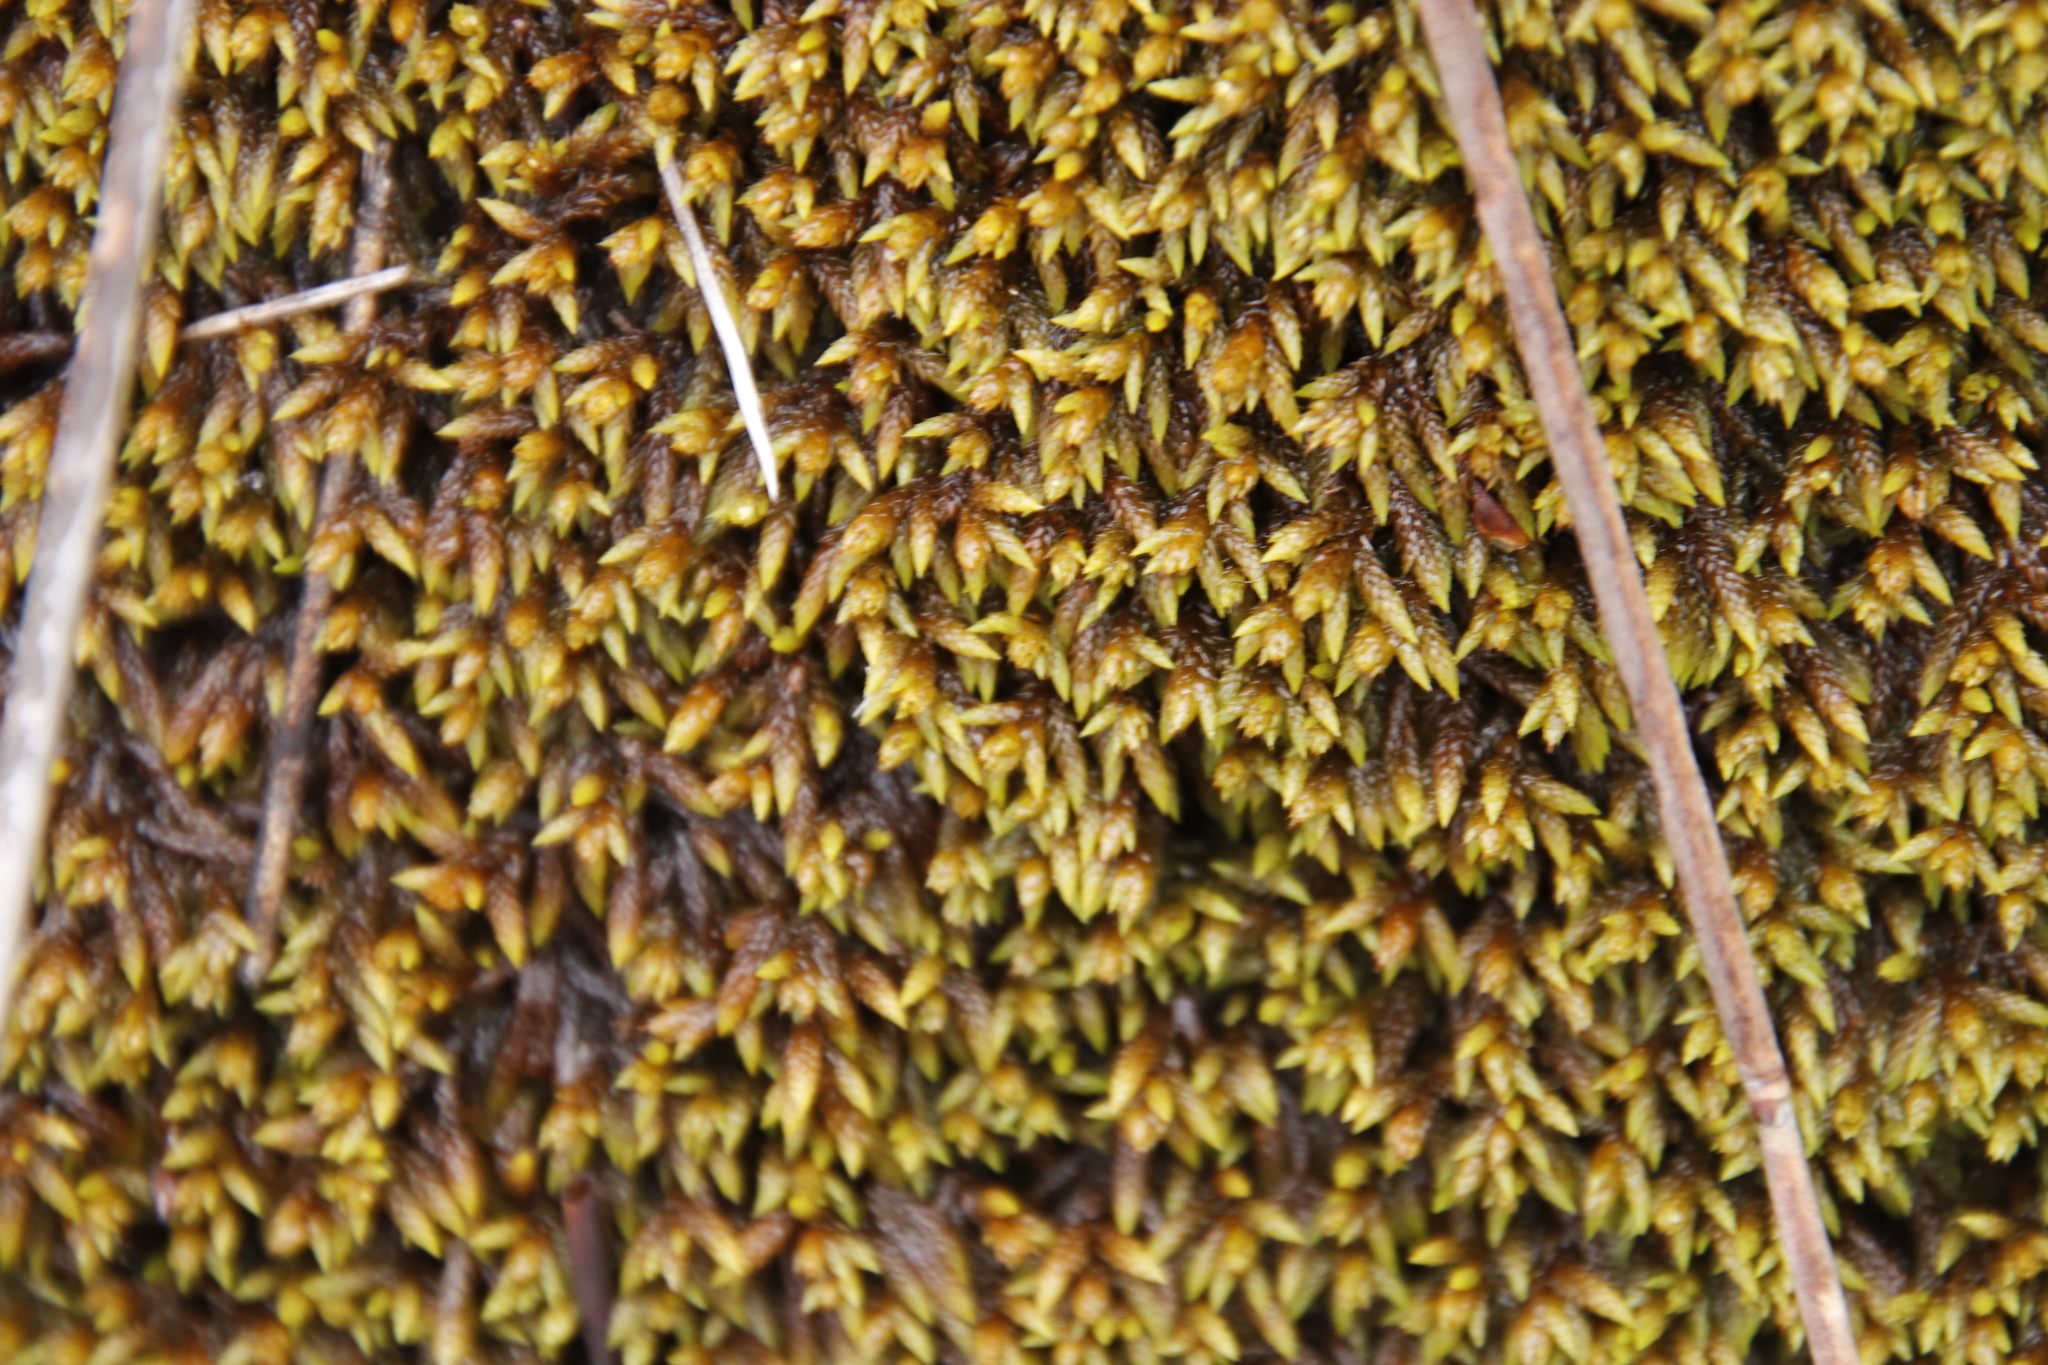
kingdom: Plantae
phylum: Bryophyta
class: Bryopsida
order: Hedwigiales
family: Hedwigiaceae
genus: Rhacocarpus
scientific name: Rhacocarpus purpurascens
